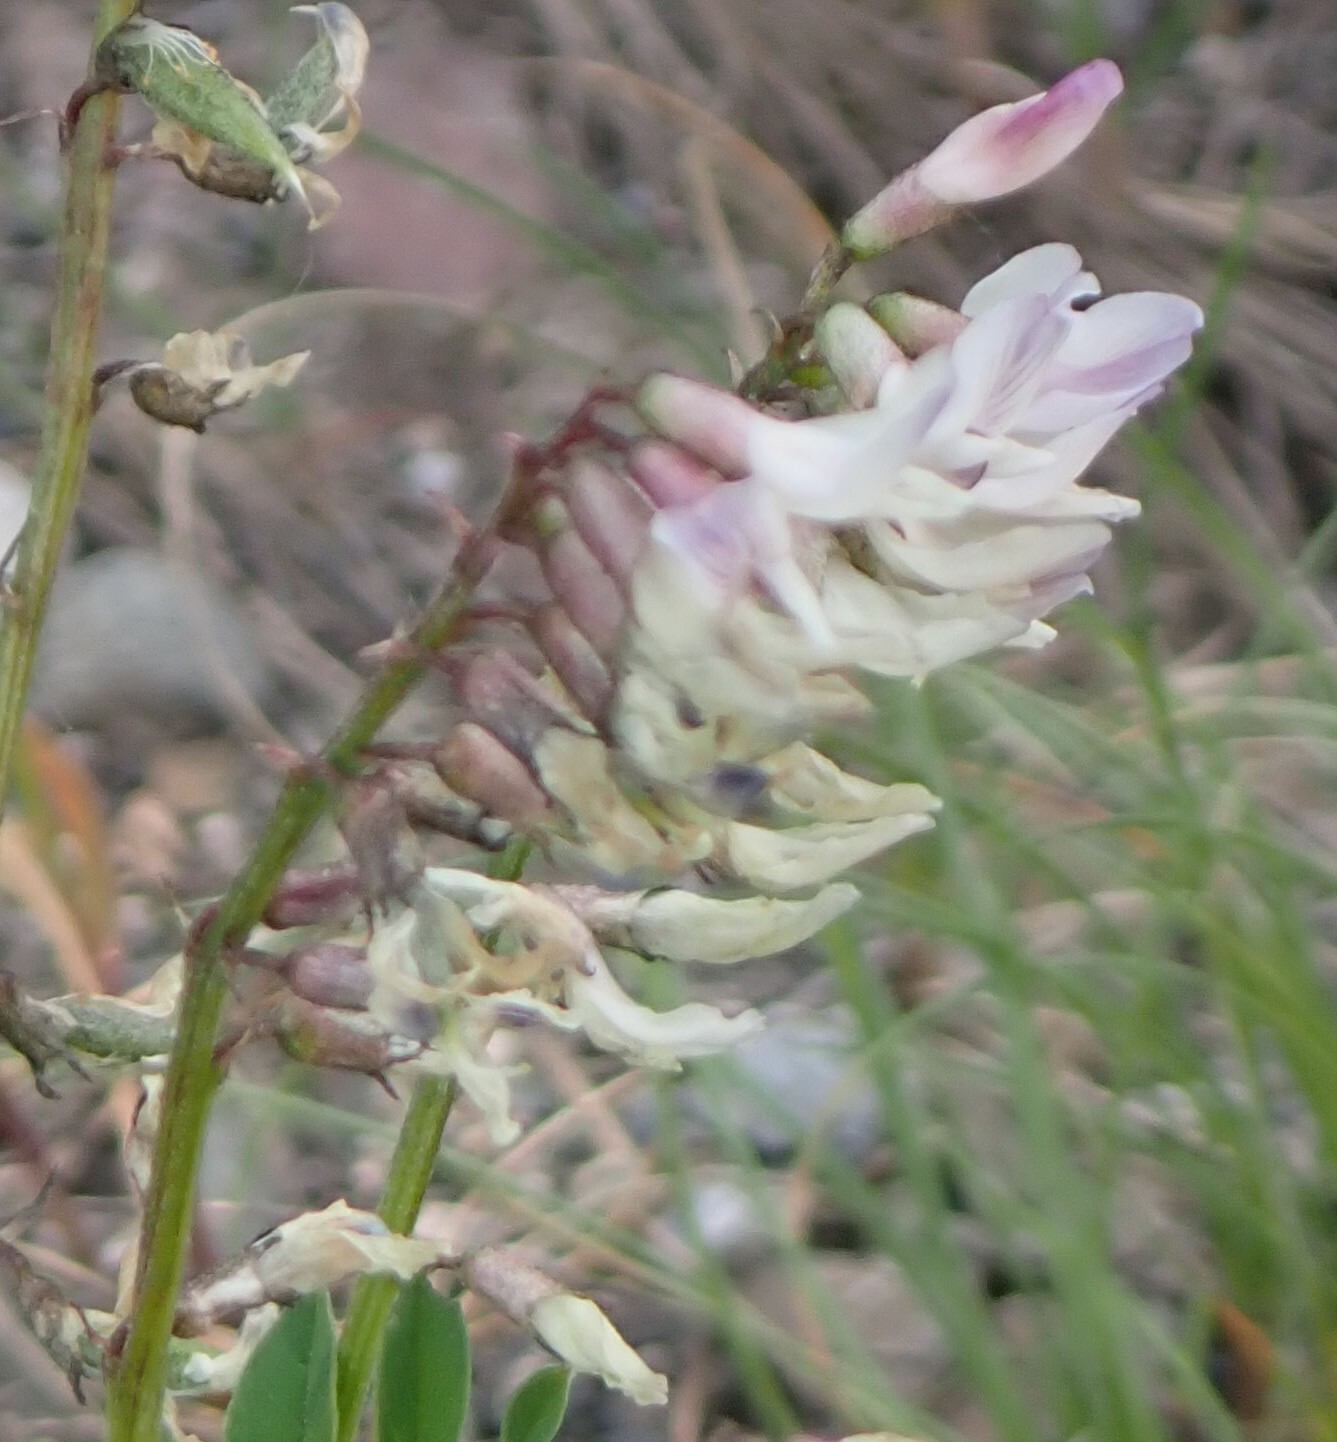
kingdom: Plantae
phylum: Tracheophyta
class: Magnoliopsida
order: Fabales
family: Fabaceae
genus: Astragalus
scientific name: Astragalus robbinsii
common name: Robbins' milk-vetch
